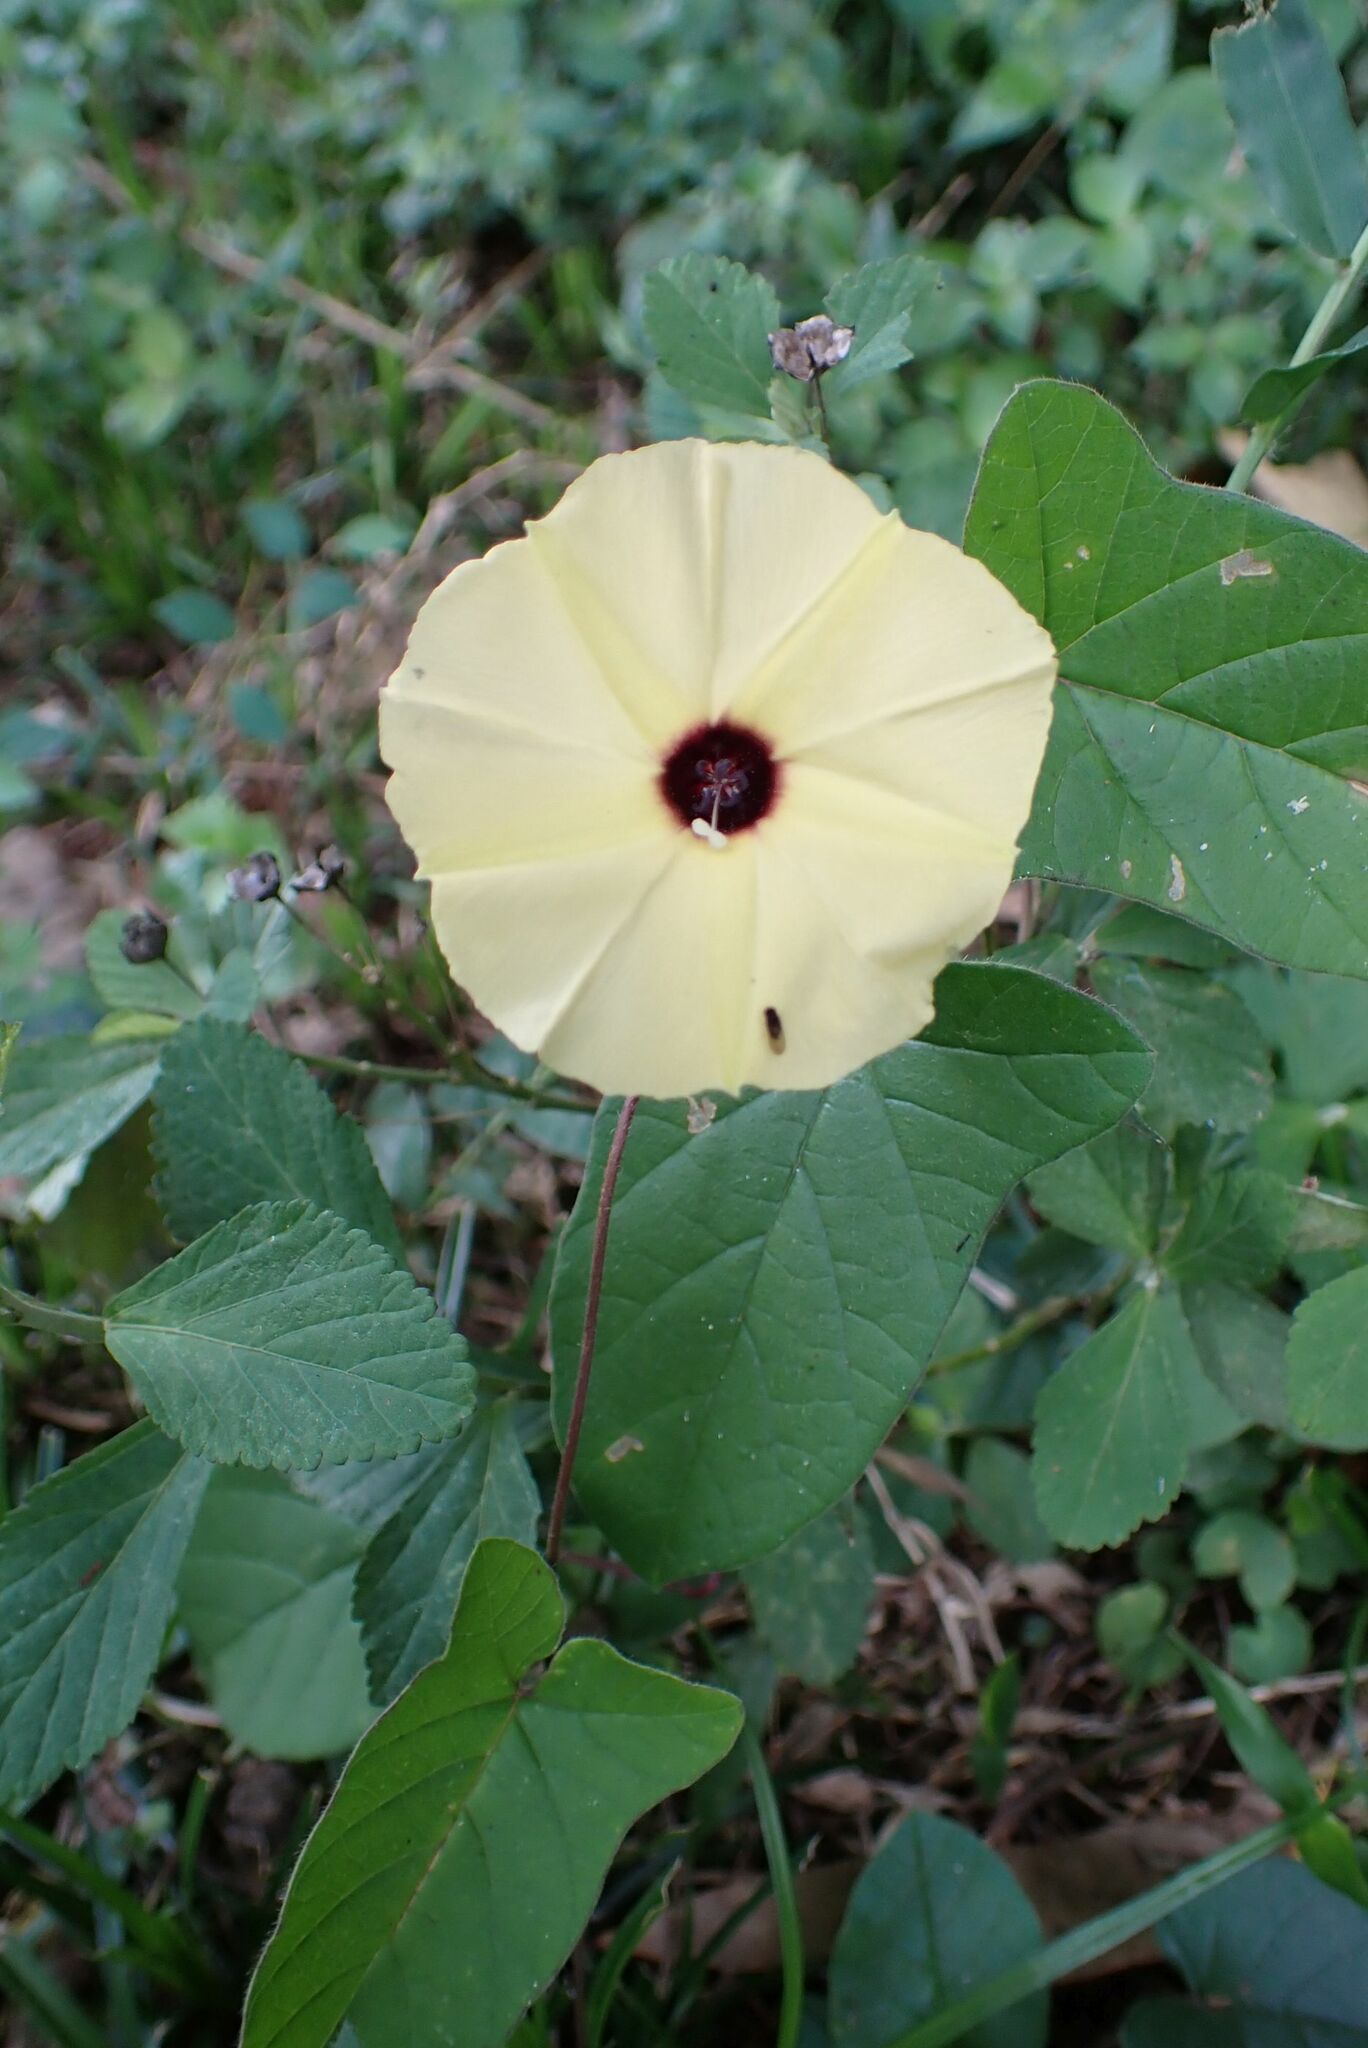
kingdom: Plantae
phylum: Tracheophyta
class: Magnoliopsida
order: Solanales
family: Convolvulaceae
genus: Hewittia
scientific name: Hewittia malabarica
